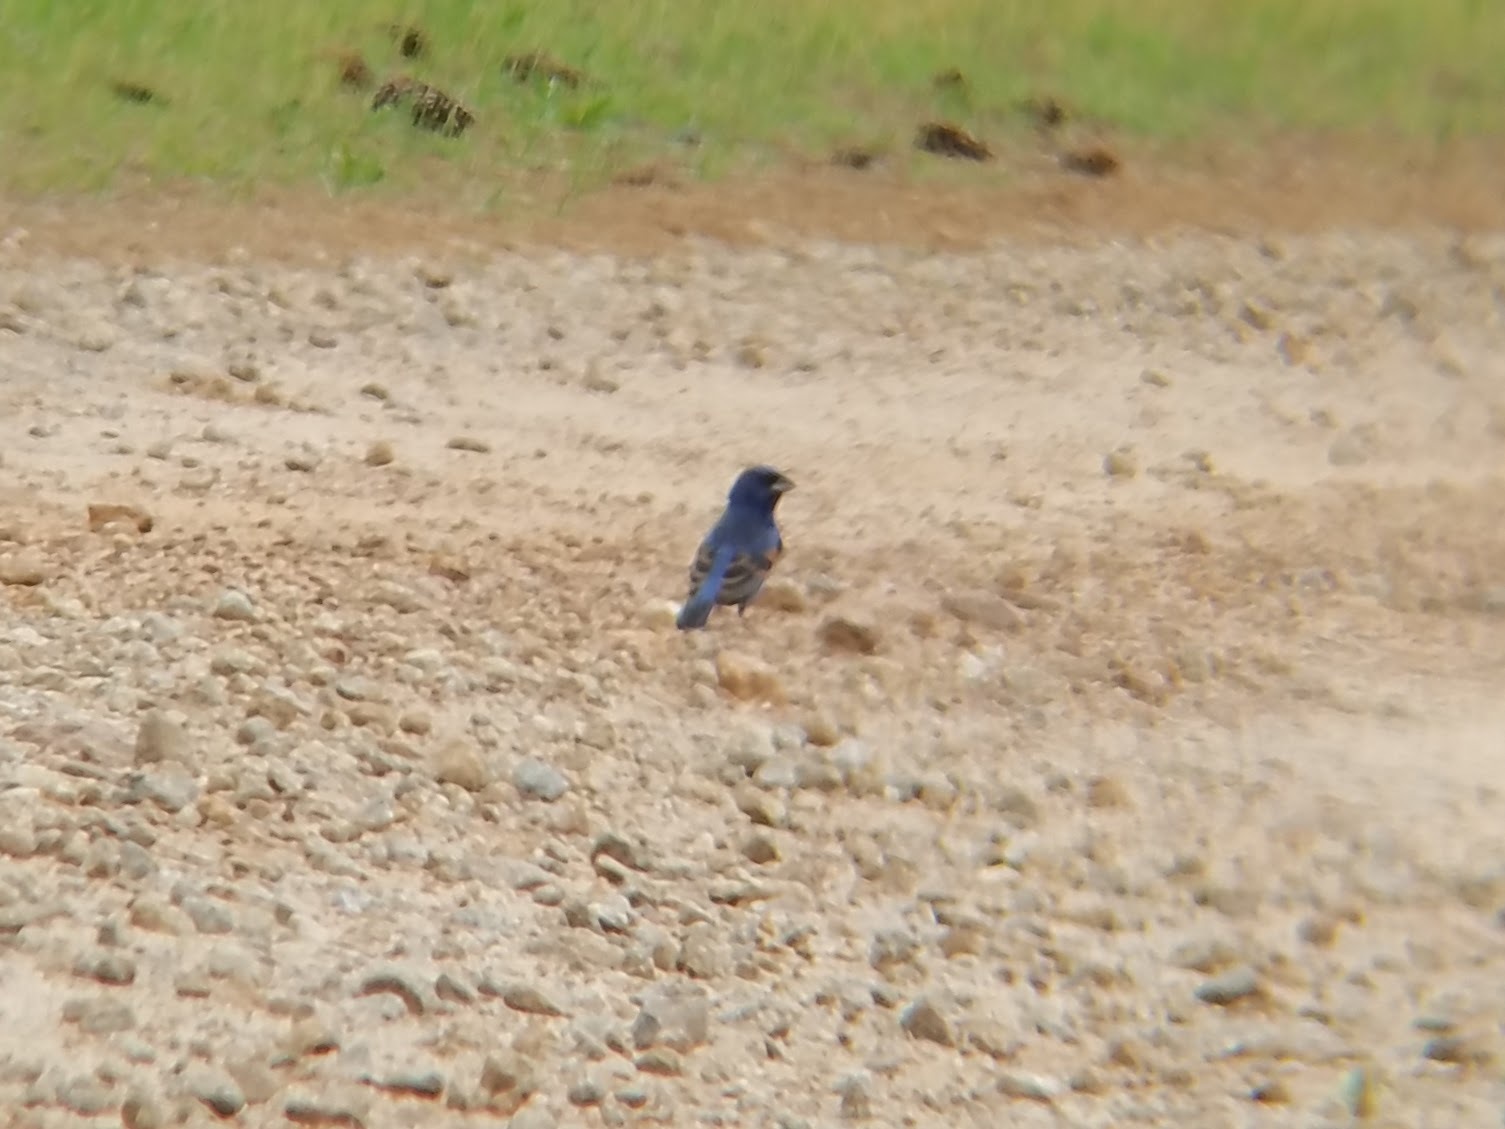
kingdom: Animalia
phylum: Chordata
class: Aves
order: Passeriformes
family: Cardinalidae
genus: Passerina
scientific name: Passerina caerulea
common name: Blue grosbeak
